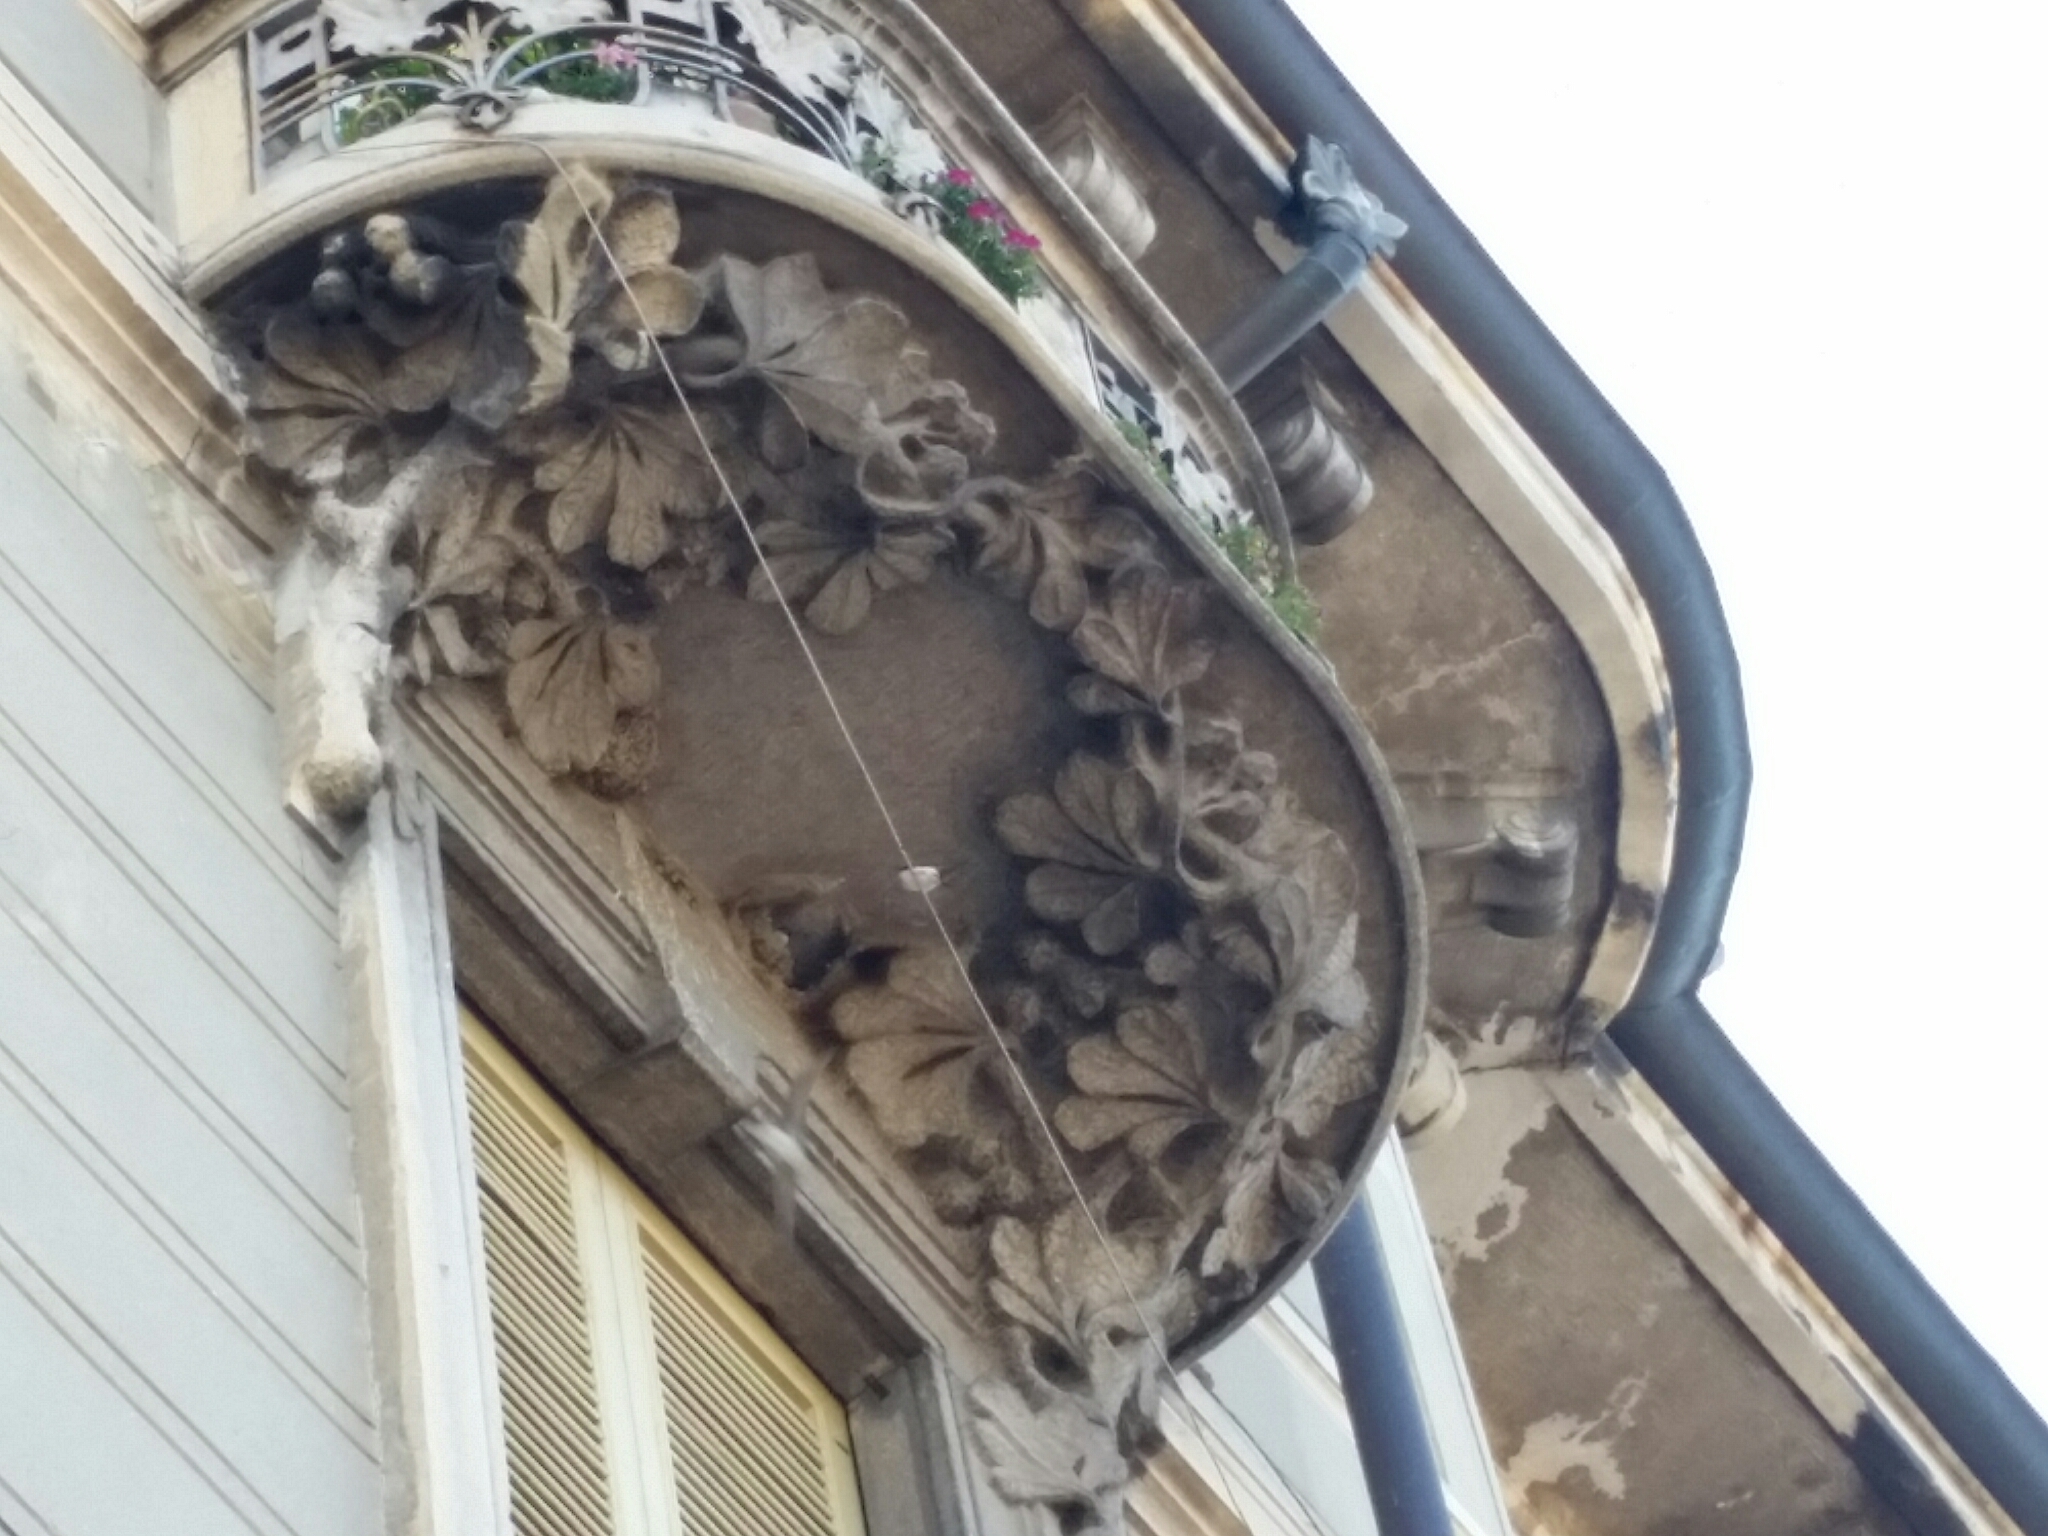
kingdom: Animalia
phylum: Chordata
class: Aves
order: Passeriformes
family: Hirundinidae
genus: Delichon
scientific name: Delichon urbicum
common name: Common house martin
